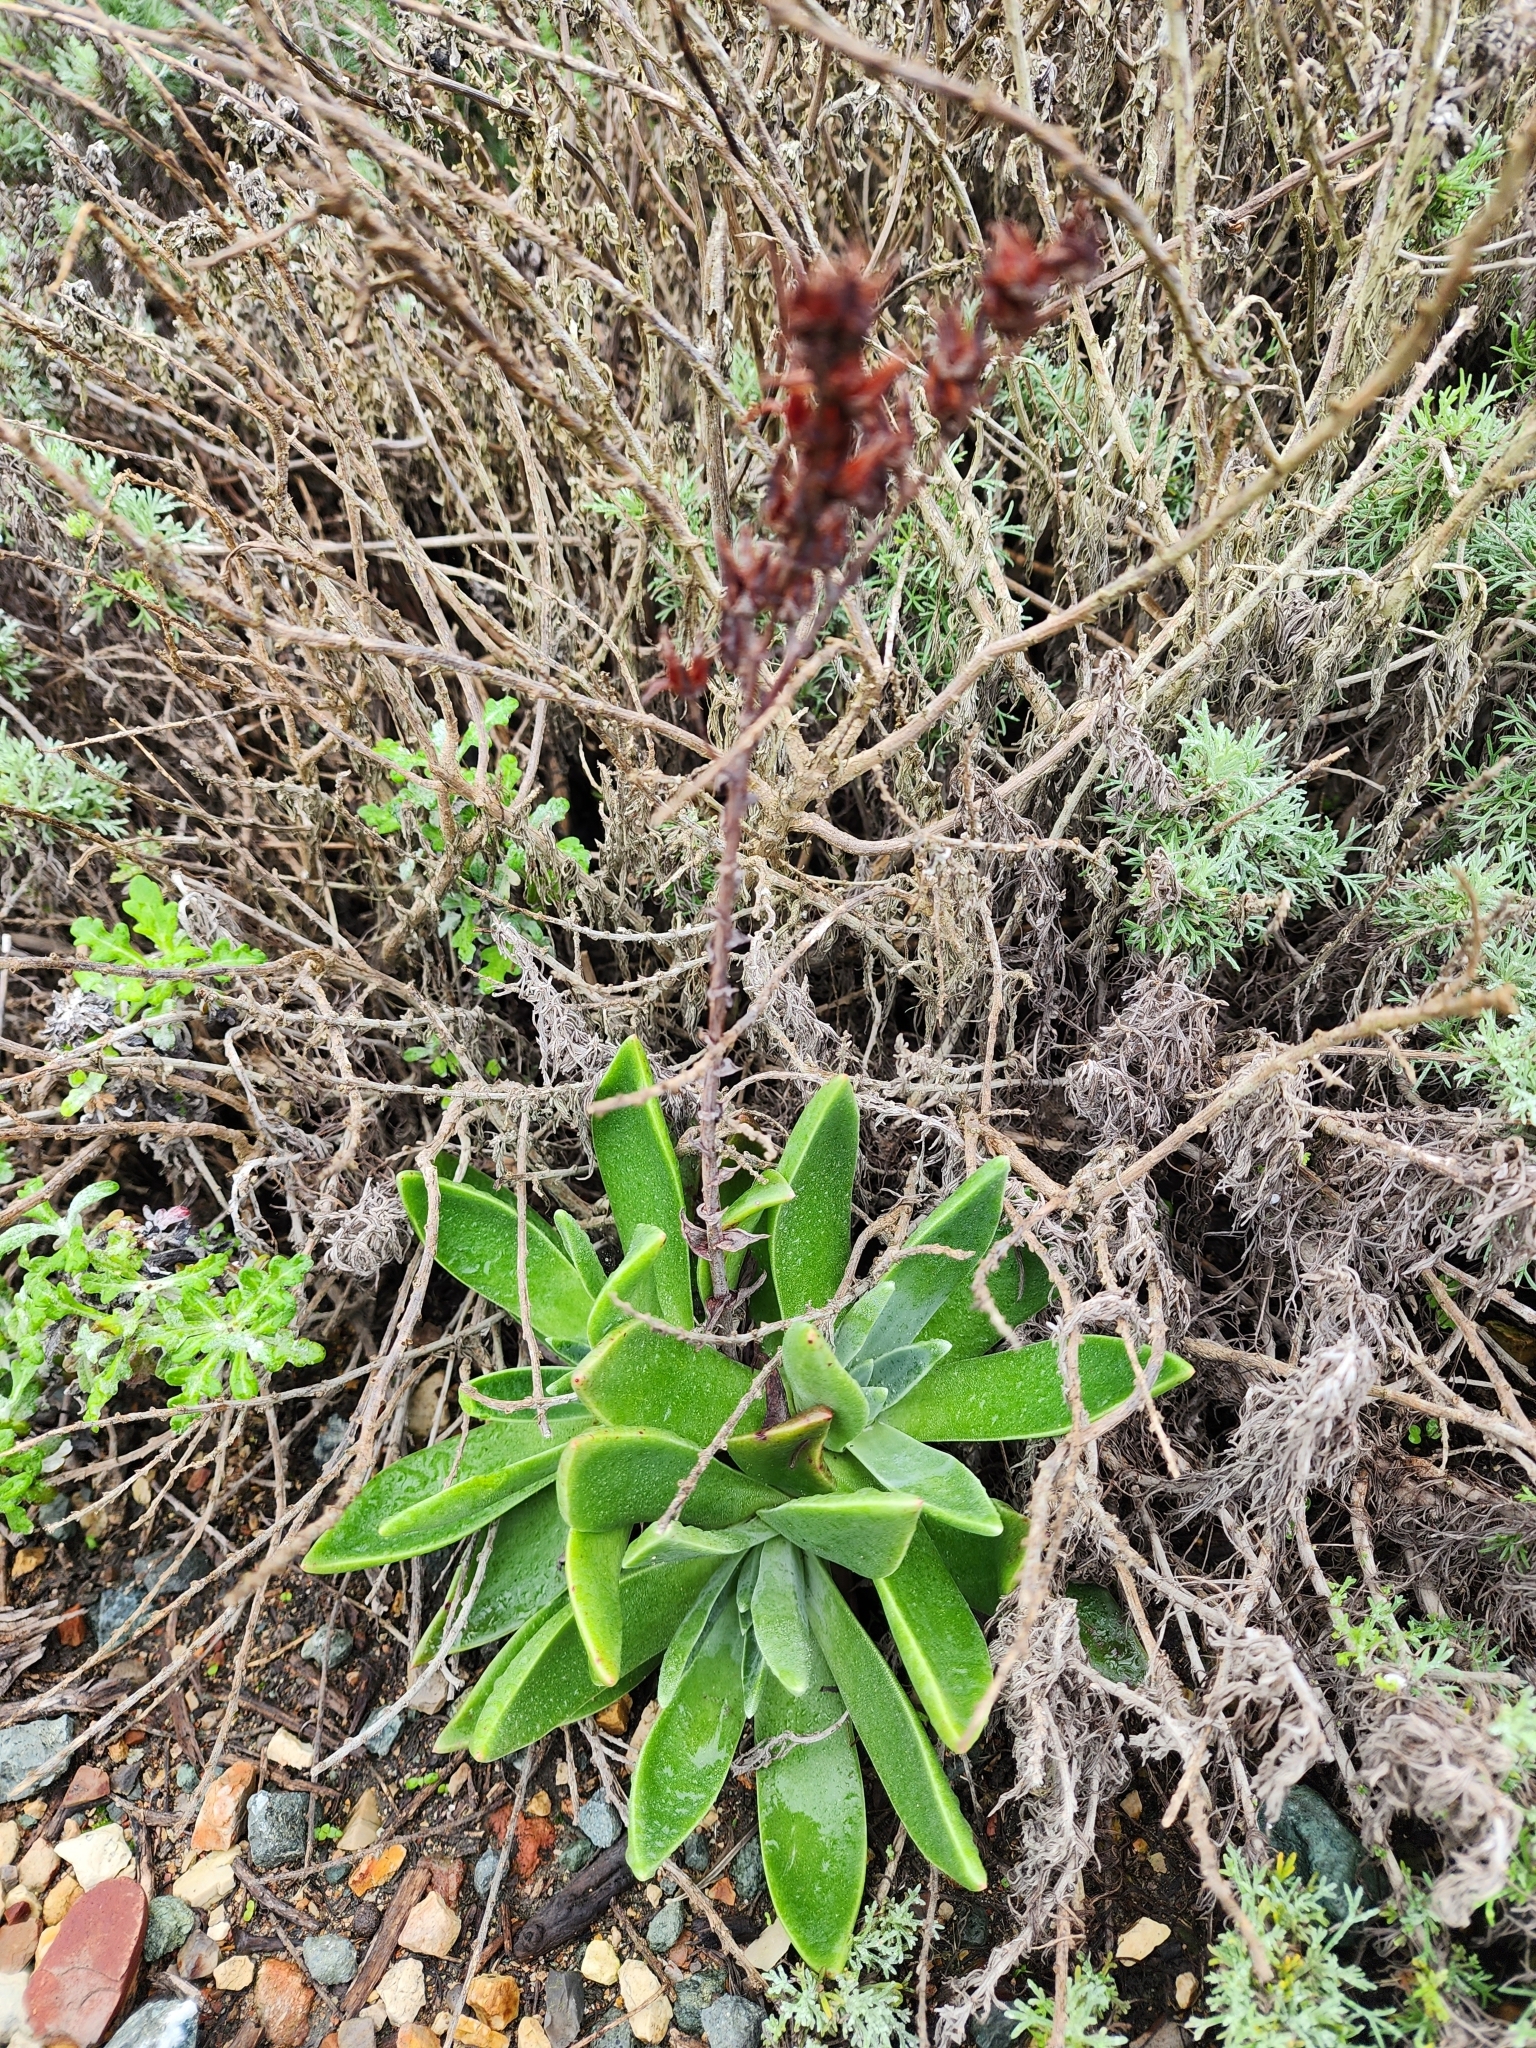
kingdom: Plantae
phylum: Tracheophyta
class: Magnoliopsida
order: Saxifragales
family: Crassulaceae
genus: Dudleya
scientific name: Dudleya lanceolata
